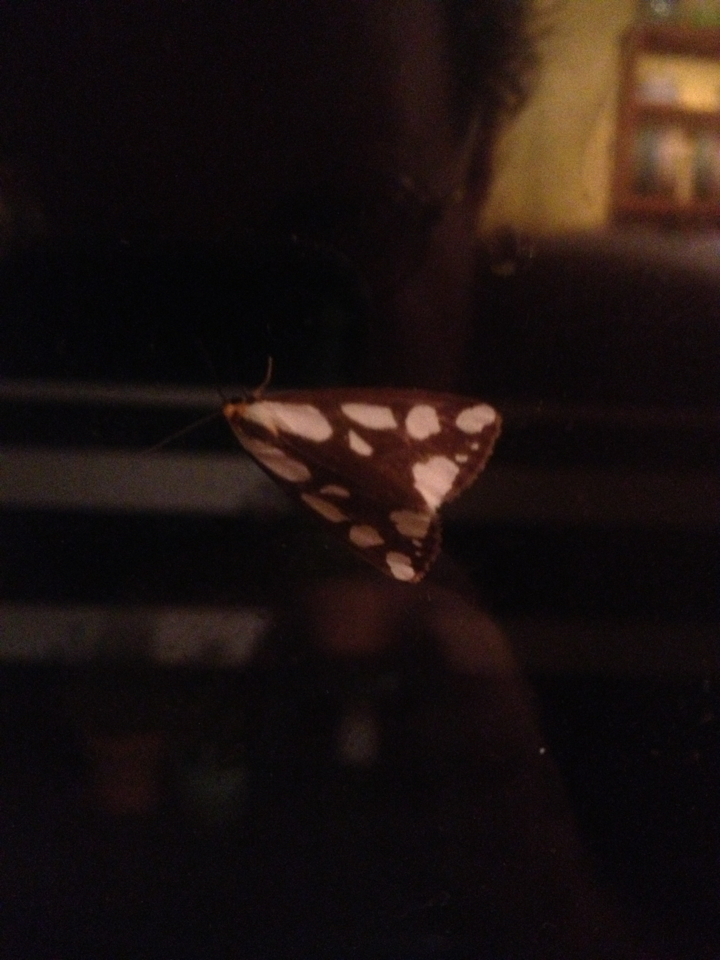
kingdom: Animalia
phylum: Arthropoda
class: Insecta
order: Lepidoptera
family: Erebidae
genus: Haploa
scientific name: Haploa confusa
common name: Confused haploa moth
